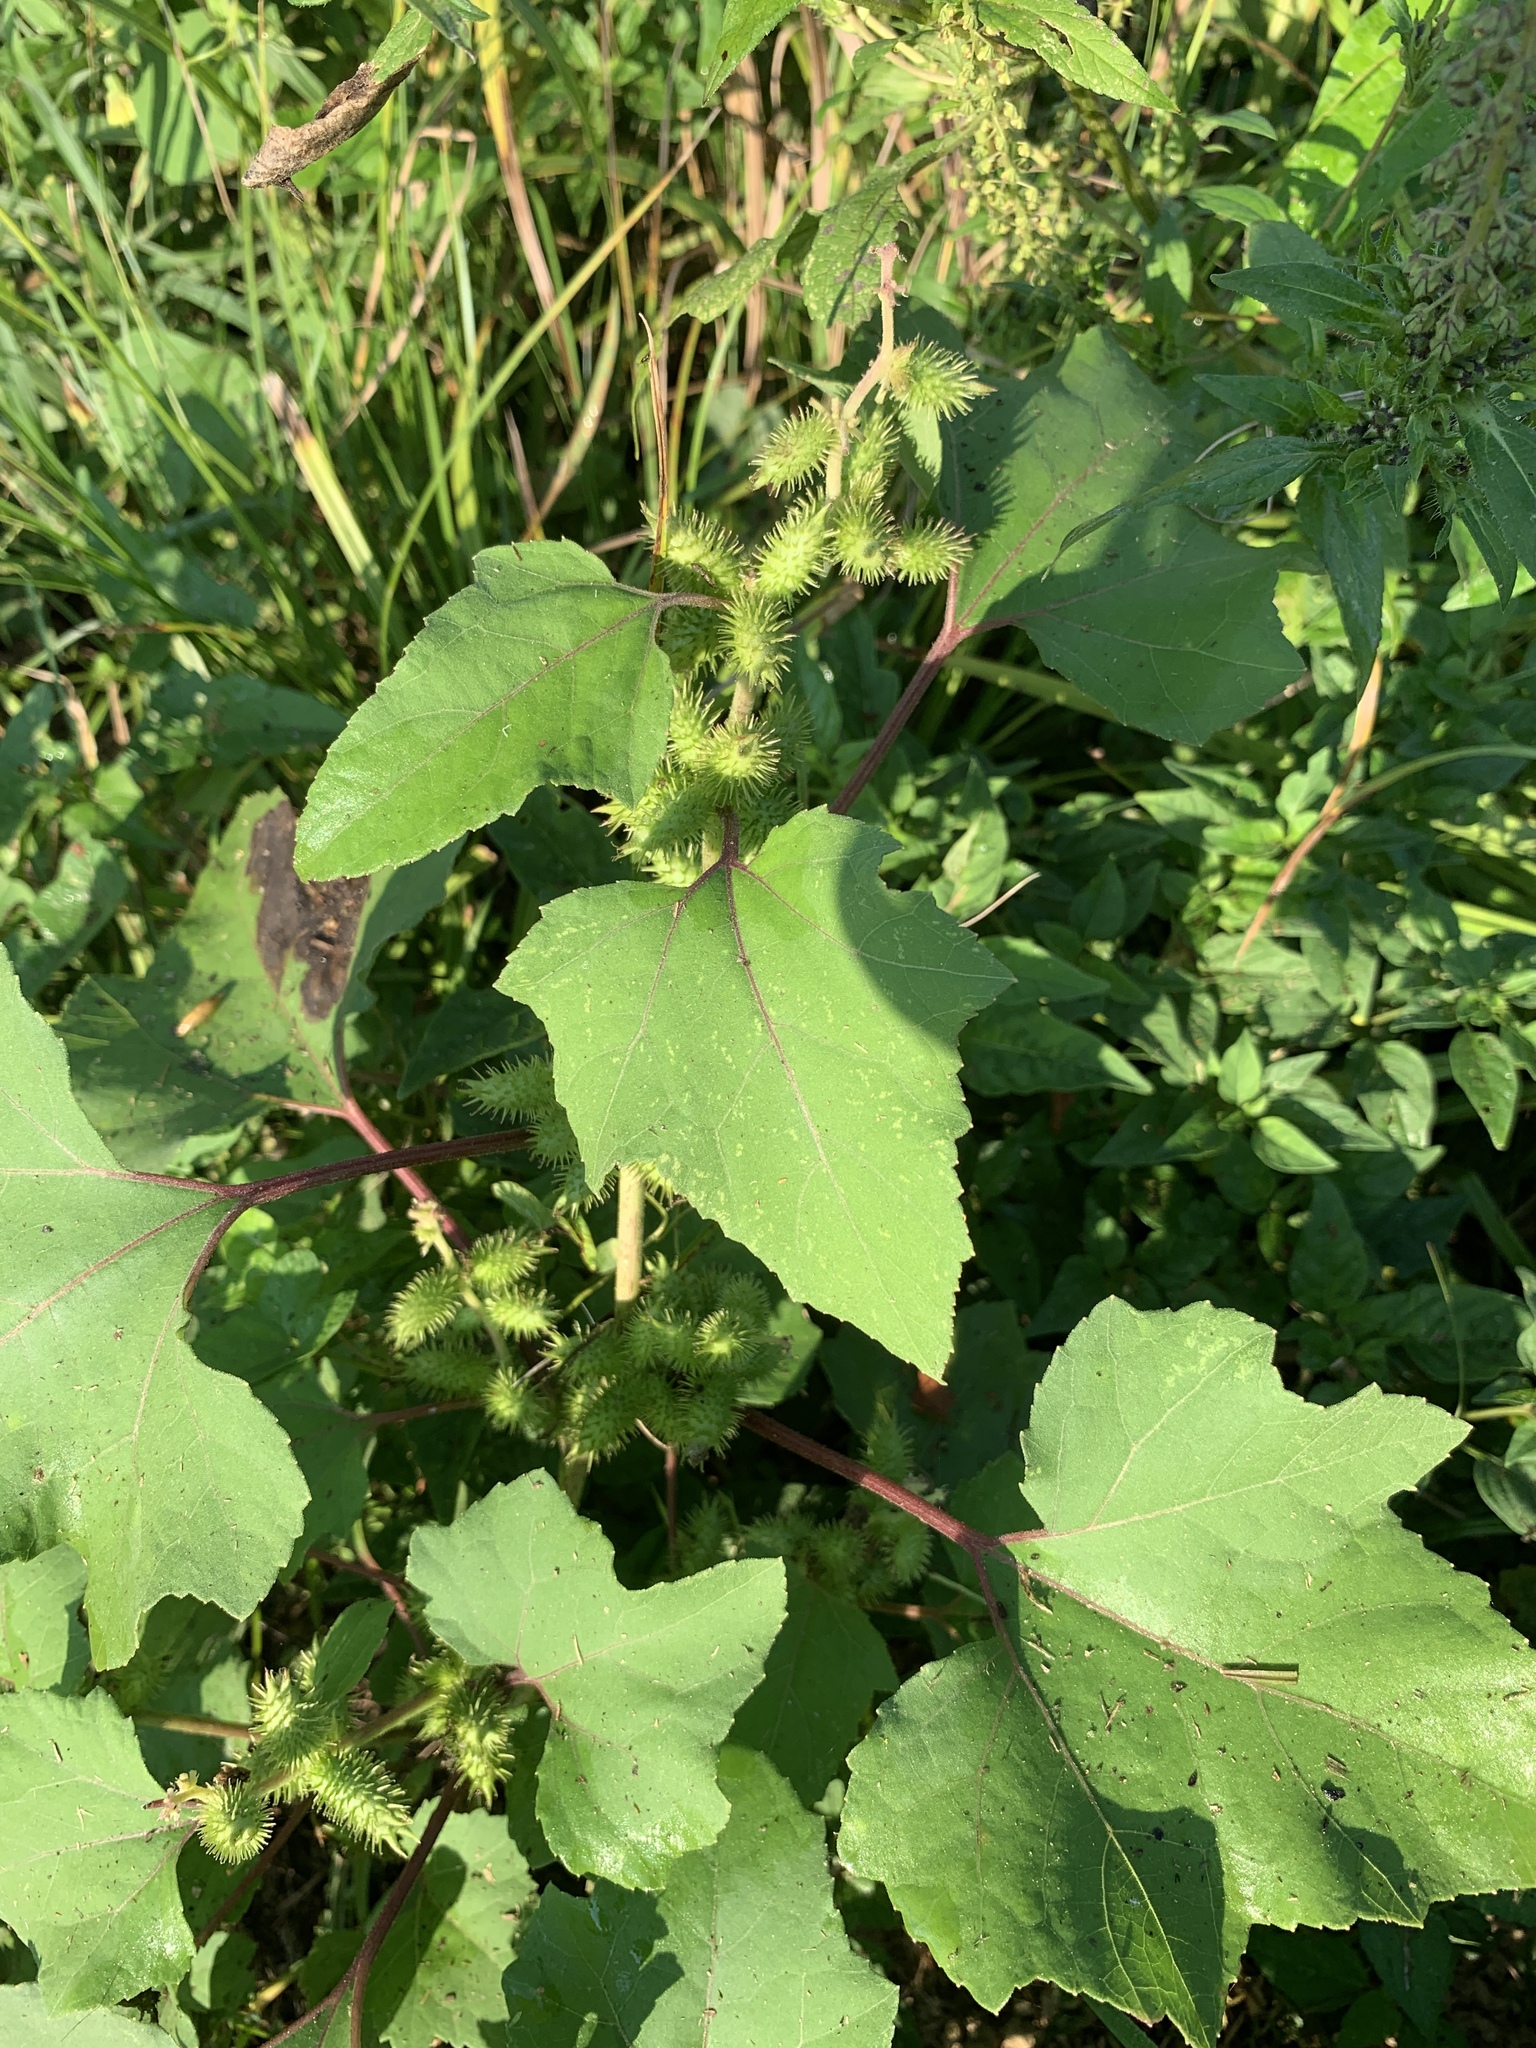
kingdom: Plantae
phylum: Tracheophyta
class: Magnoliopsida
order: Asterales
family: Asteraceae
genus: Xanthium
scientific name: Xanthium strumarium
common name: Rough cocklebur
